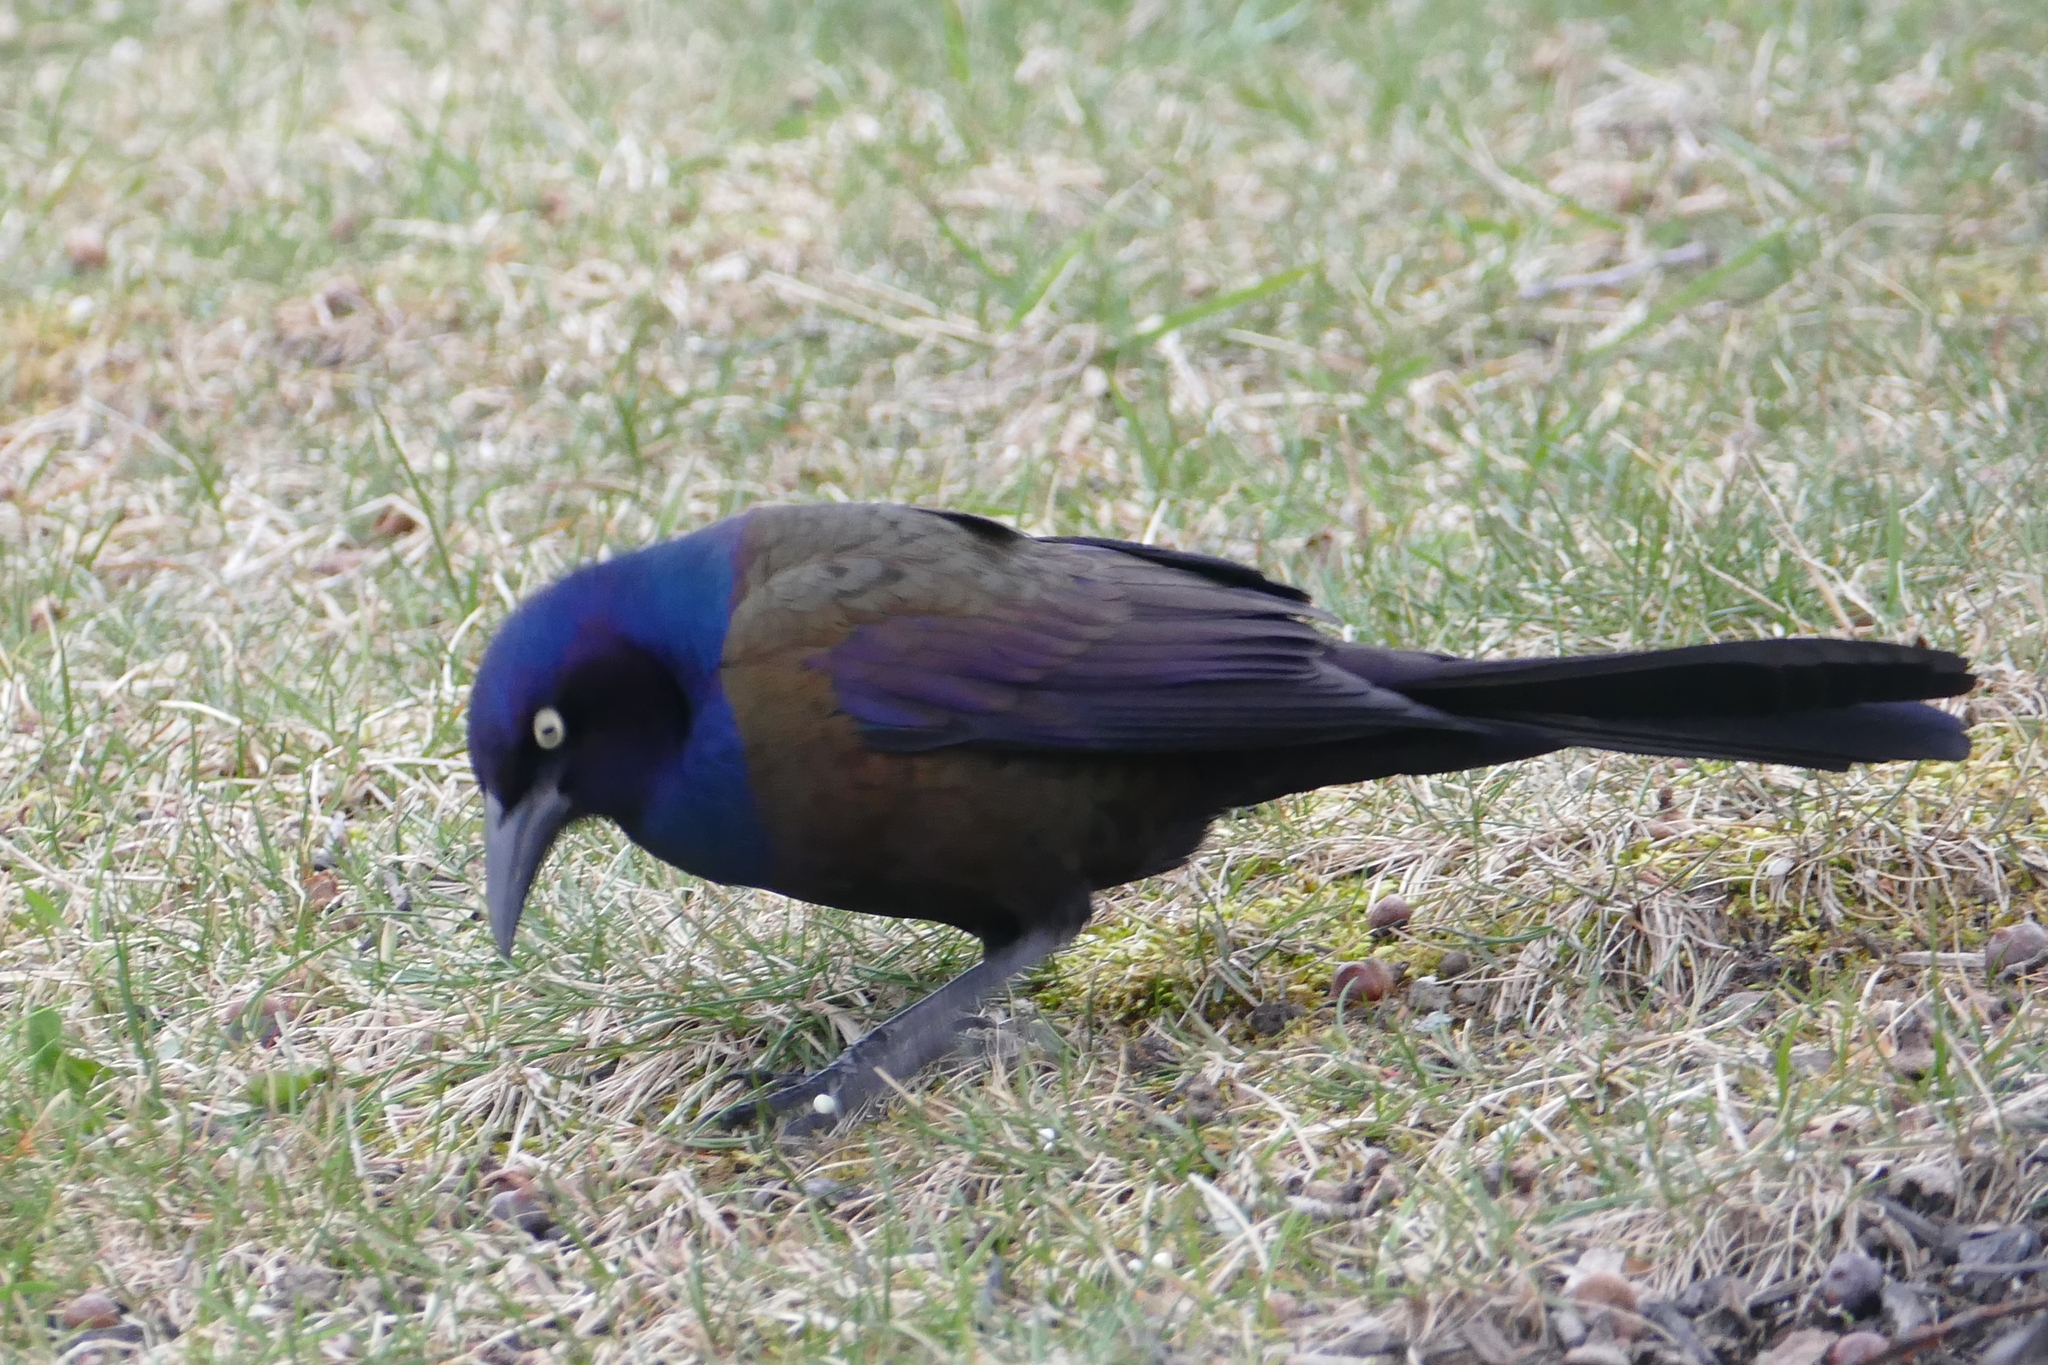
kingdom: Animalia
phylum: Chordata
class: Aves
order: Passeriformes
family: Icteridae
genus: Quiscalus
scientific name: Quiscalus quiscula
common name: Common grackle
